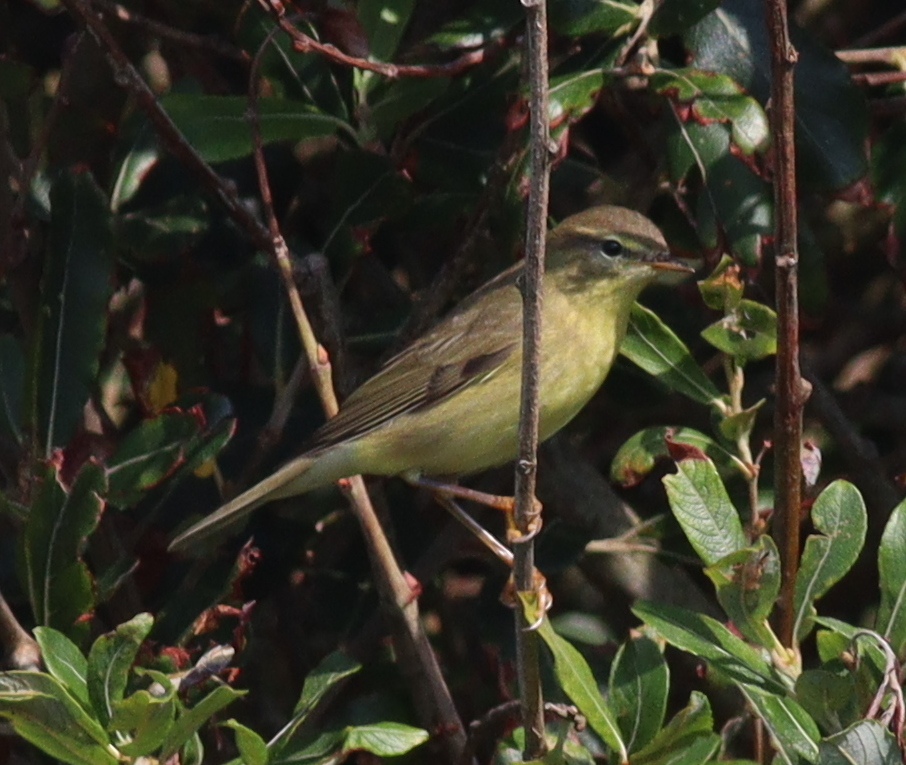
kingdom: Animalia
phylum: Chordata
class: Aves
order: Passeriformes
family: Phylloscopidae
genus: Phylloscopus
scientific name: Phylloscopus trochilus
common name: Willow warbler
